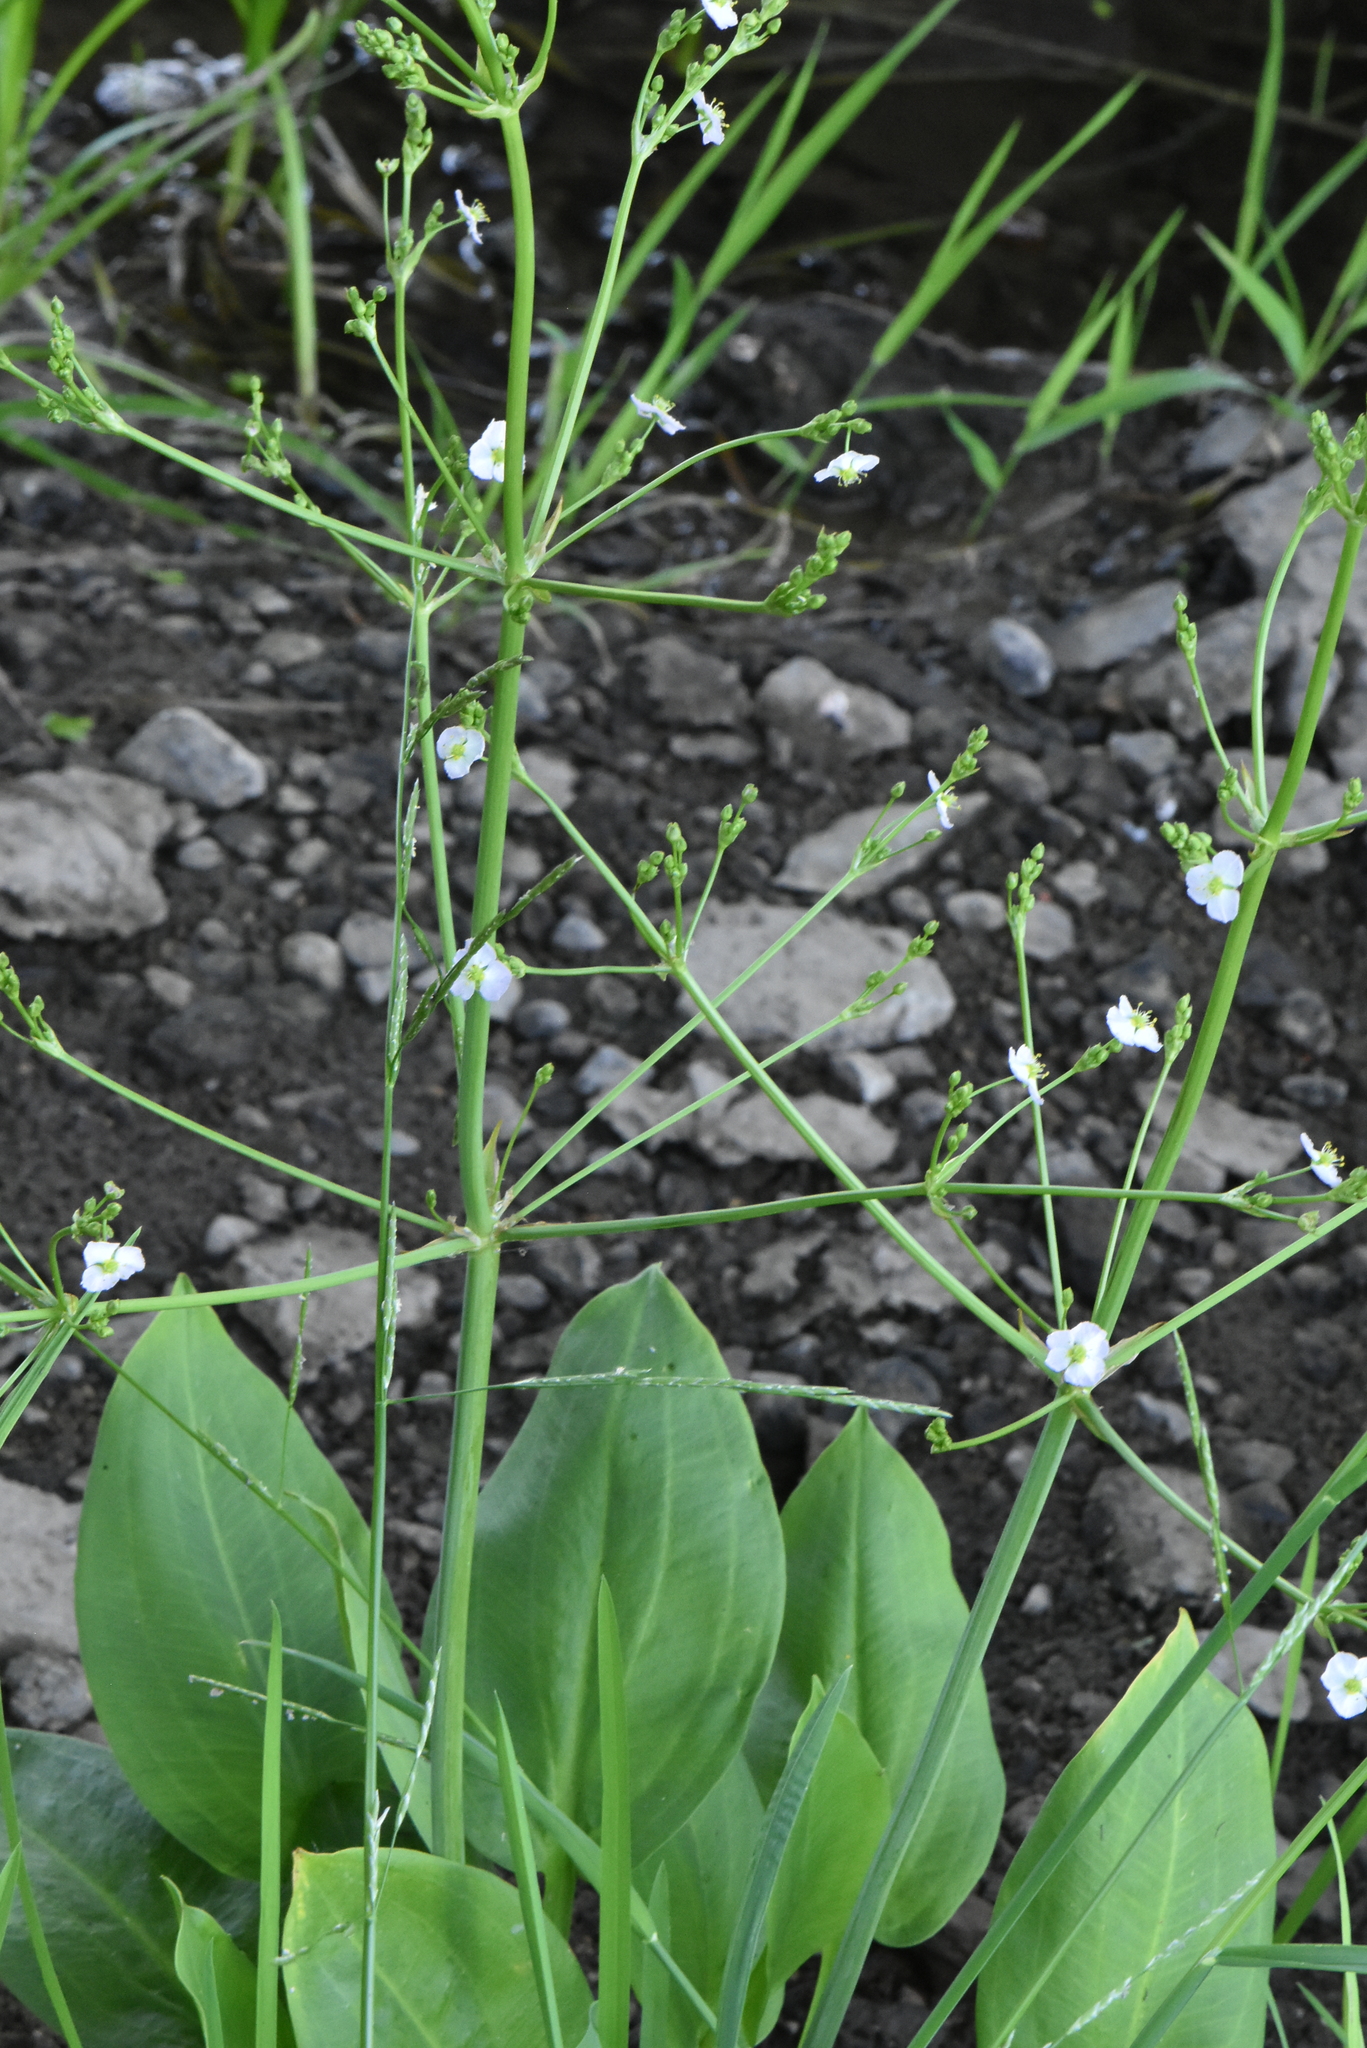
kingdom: Plantae
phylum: Tracheophyta
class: Liliopsida
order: Alismatales
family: Alismataceae
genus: Alisma
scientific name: Alisma plantago-aquatica
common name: Water-plantain
